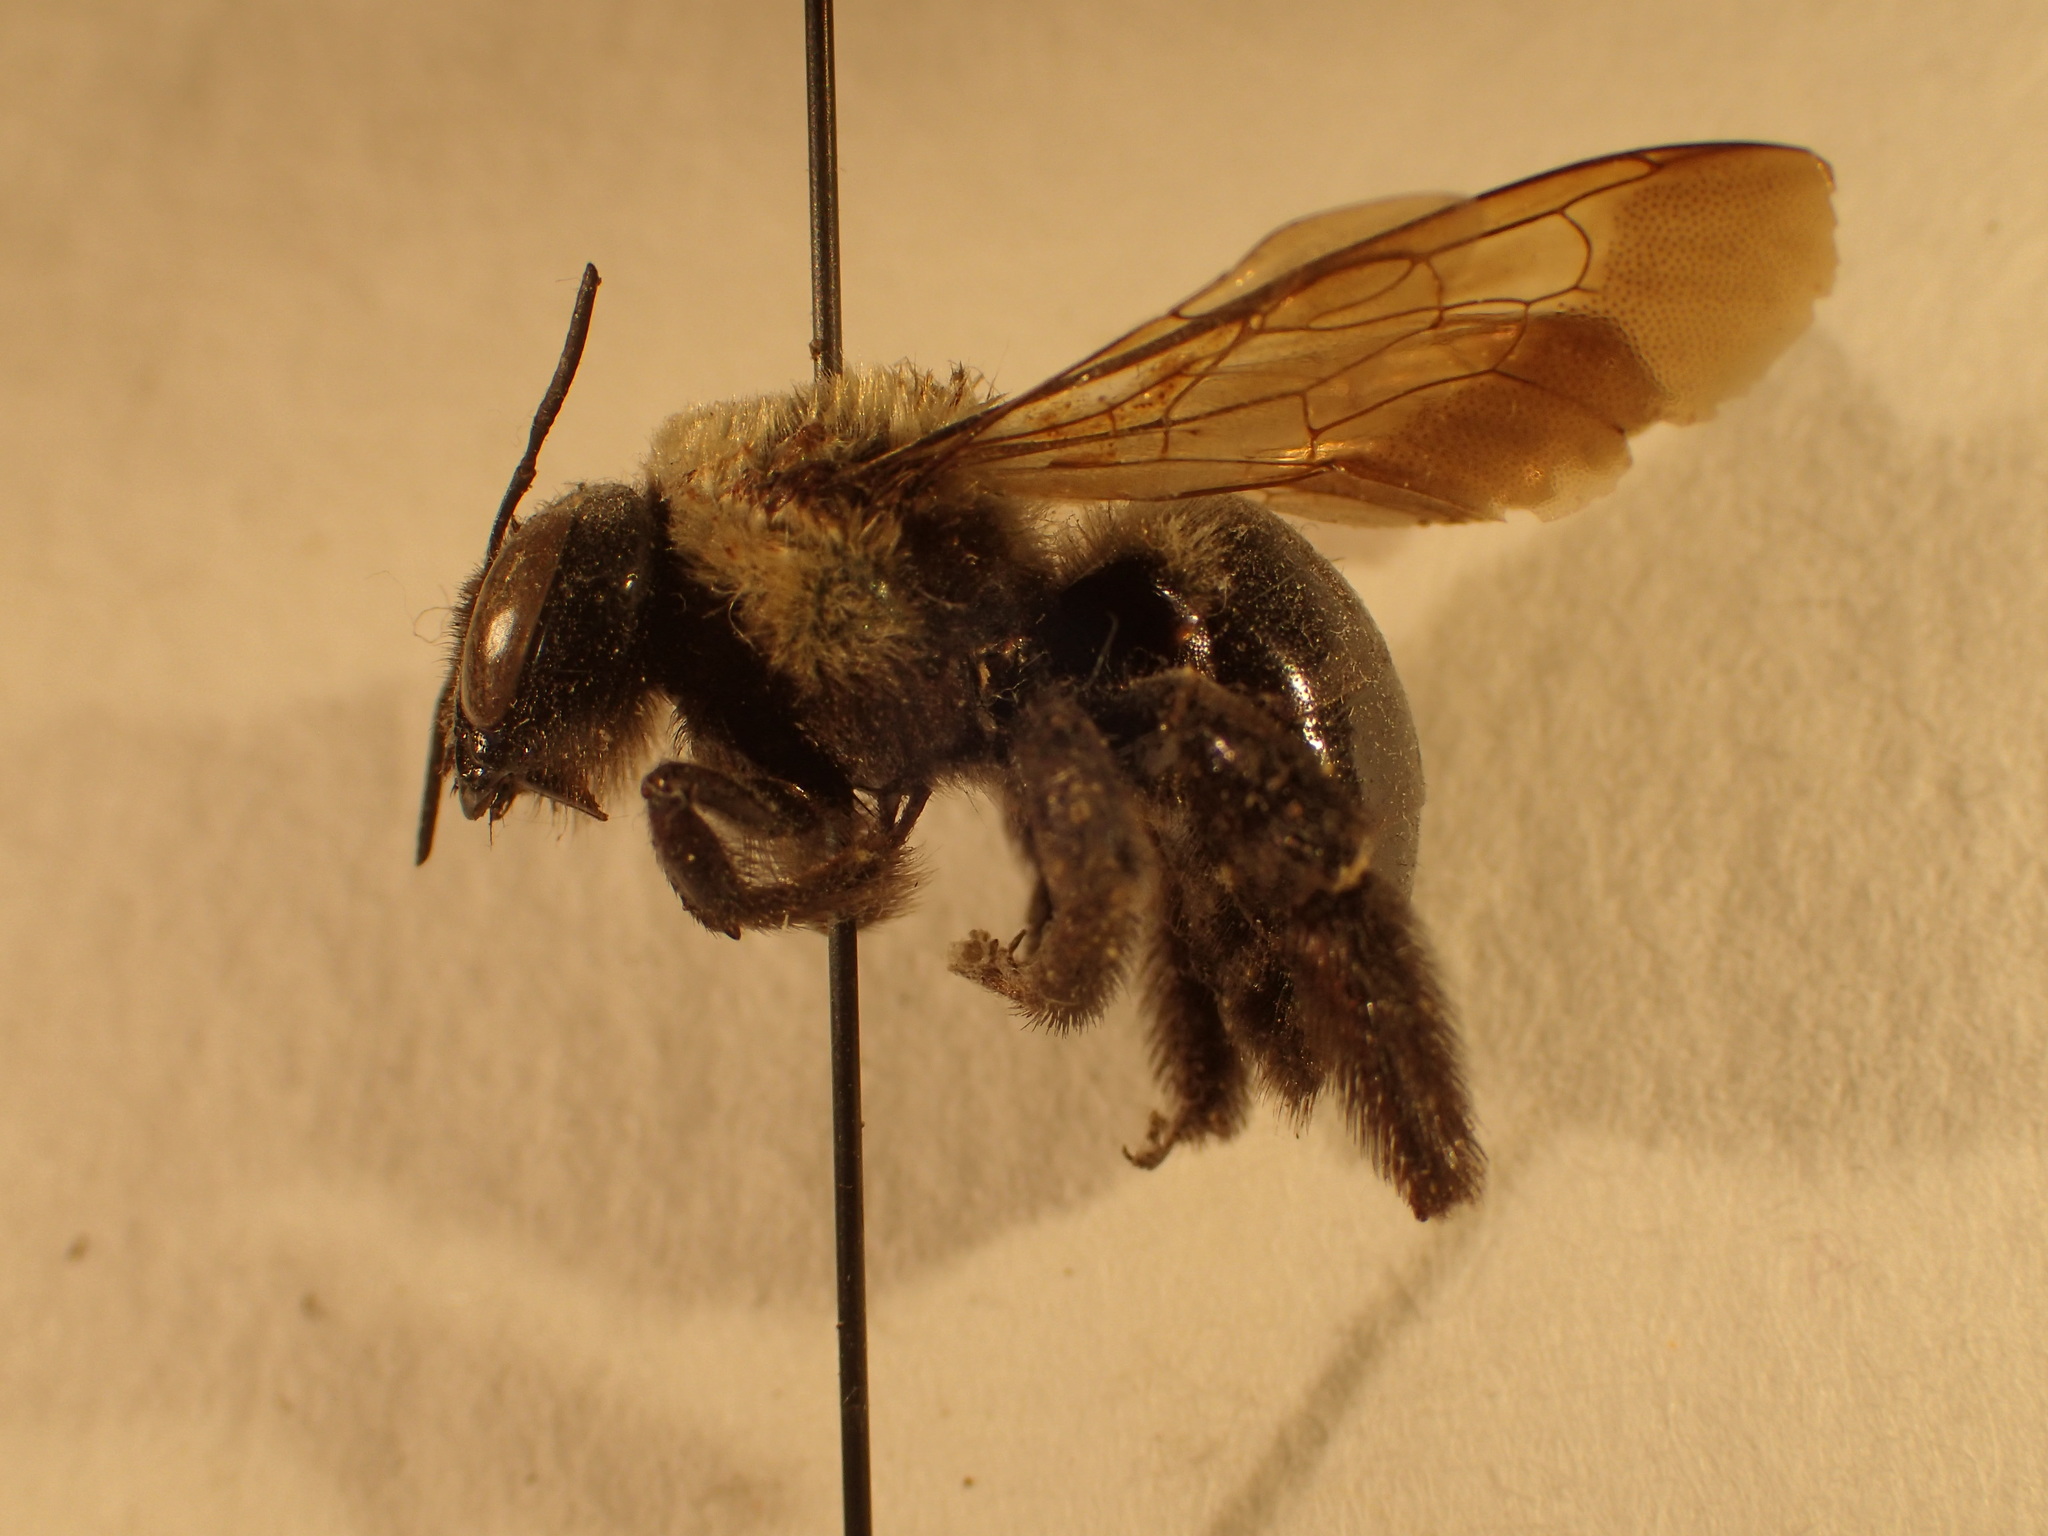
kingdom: Animalia
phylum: Arthropoda
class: Insecta
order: Hymenoptera
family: Apidae
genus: Xylocopa
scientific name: Xylocopa virginica
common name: Carpenter bee
